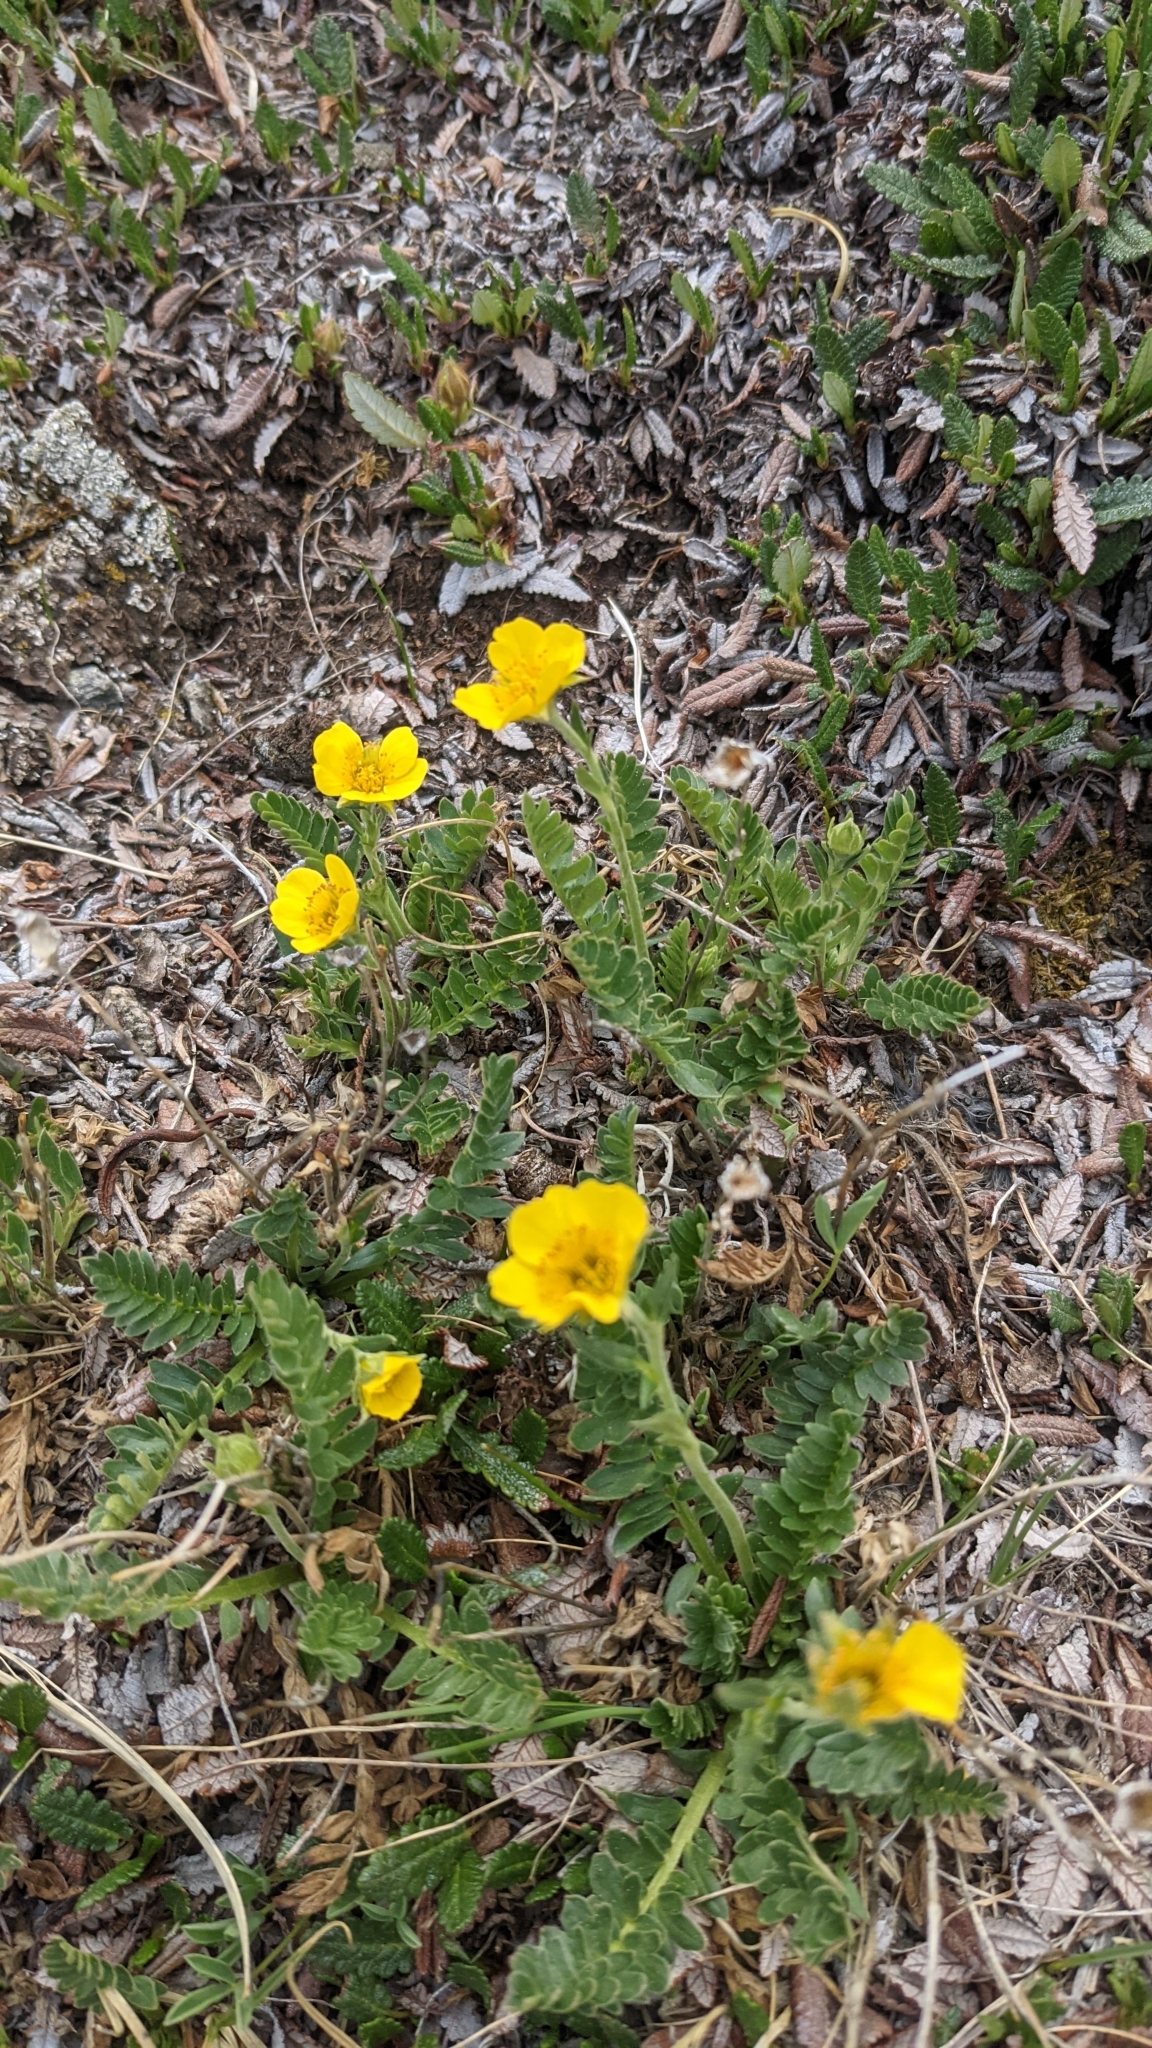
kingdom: Plantae
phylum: Tracheophyta
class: Magnoliopsida
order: Rosales
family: Rosaceae
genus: Geum
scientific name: Geum rossii
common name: Alpine avens
